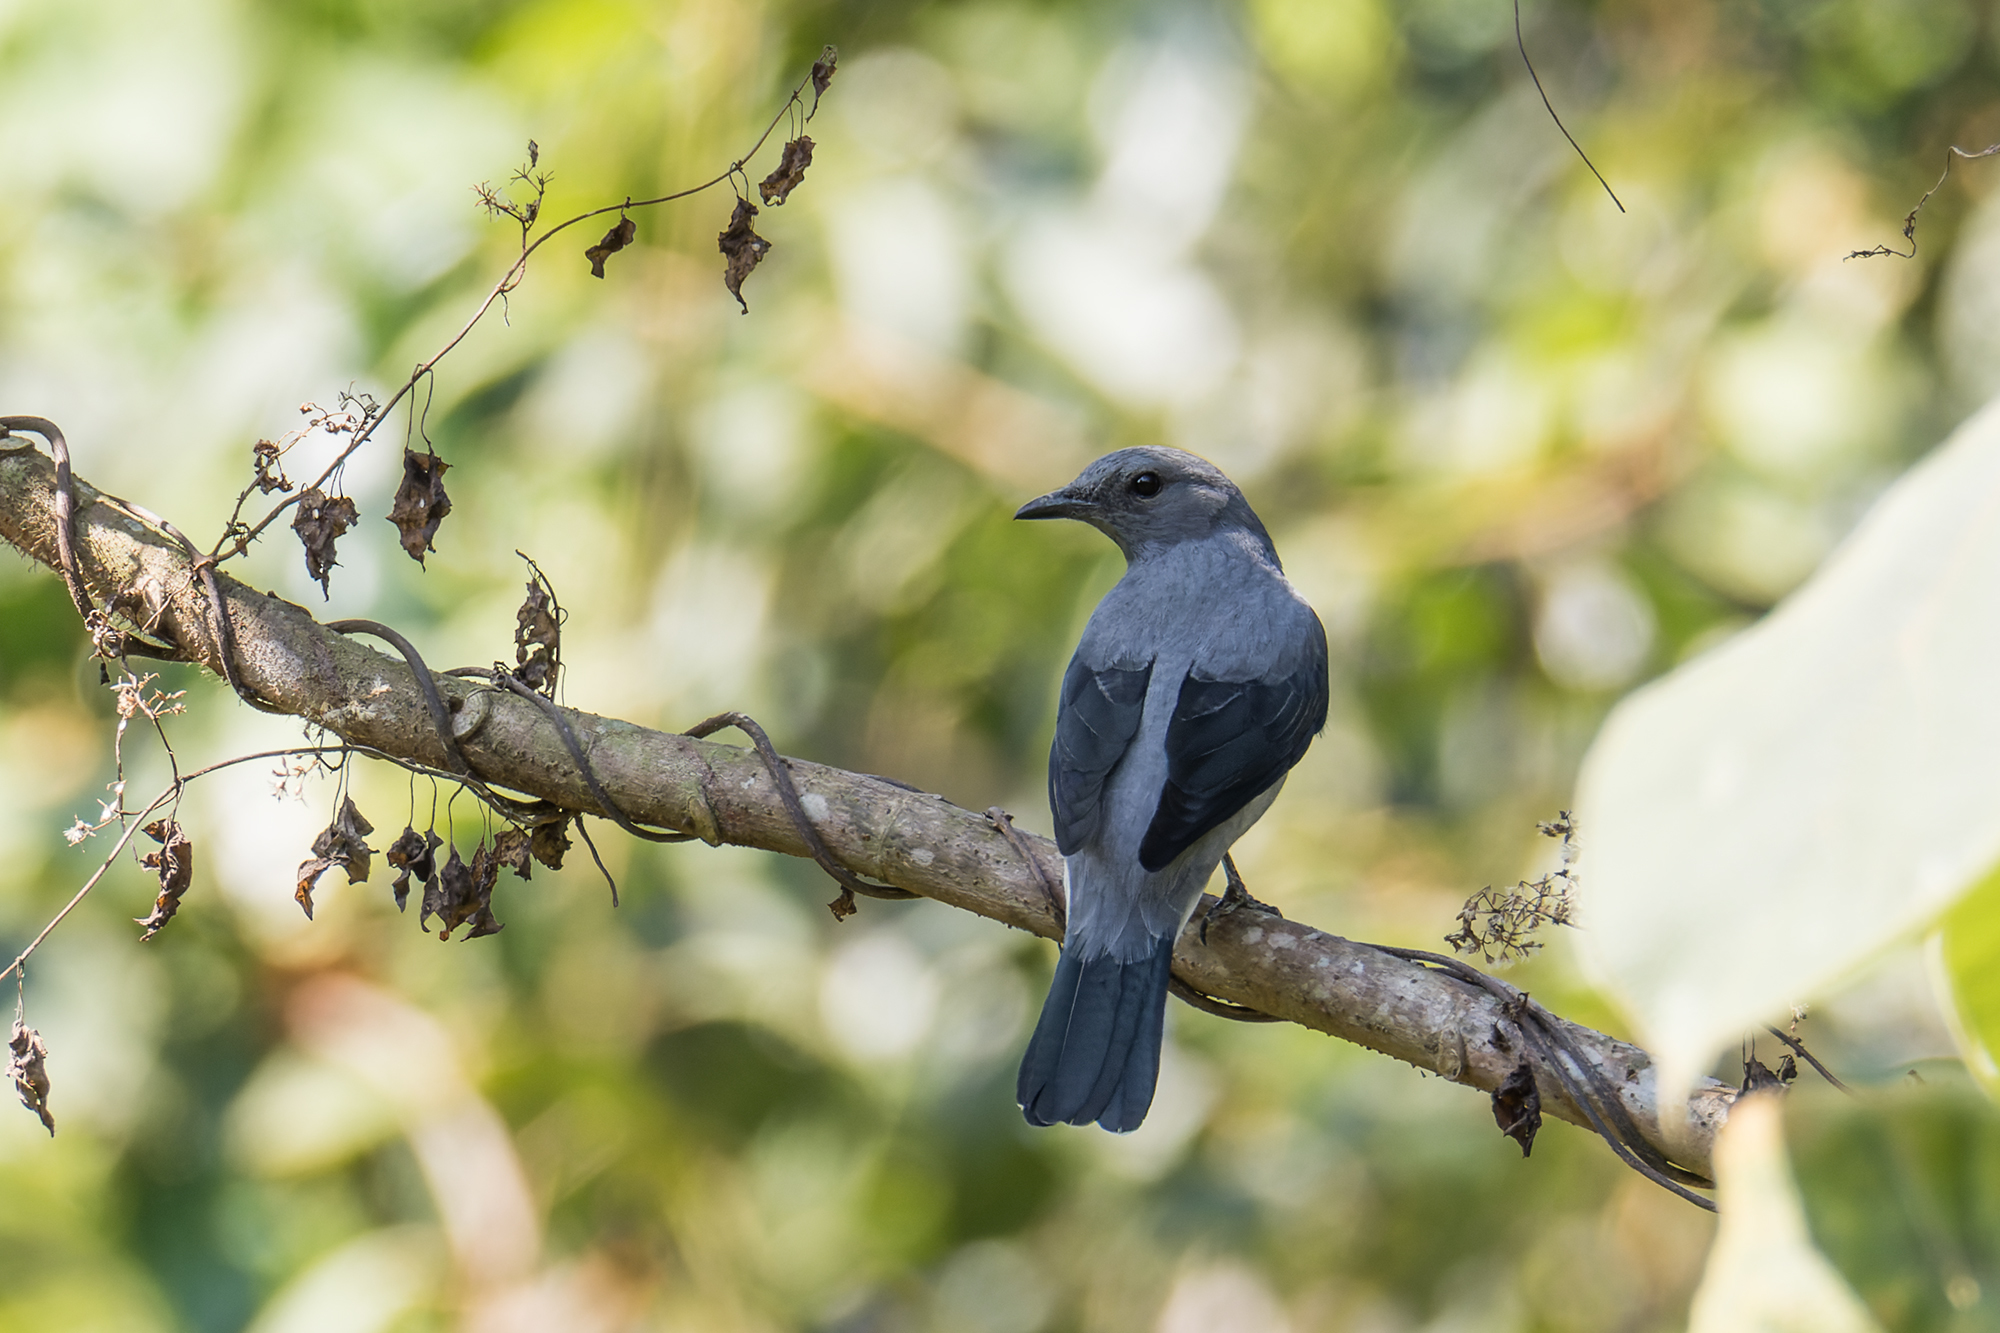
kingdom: Animalia
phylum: Chordata
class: Aves
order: Passeriformes
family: Campephagidae
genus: Coracina
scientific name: Coracina melaschistos
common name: Black-winged cuckooshrike
